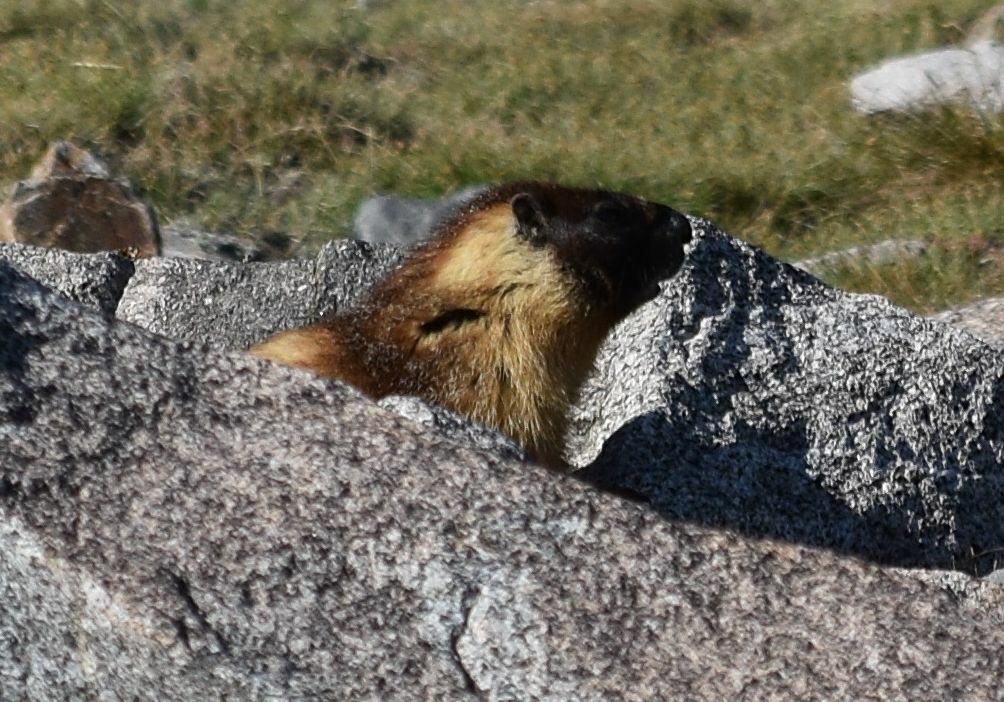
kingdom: Animalia
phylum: Chordata
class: Mammalia
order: Rodentia
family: Sciuridae
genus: Marmota
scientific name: Marmota flaviventris
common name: Yellow-bellied marmot
